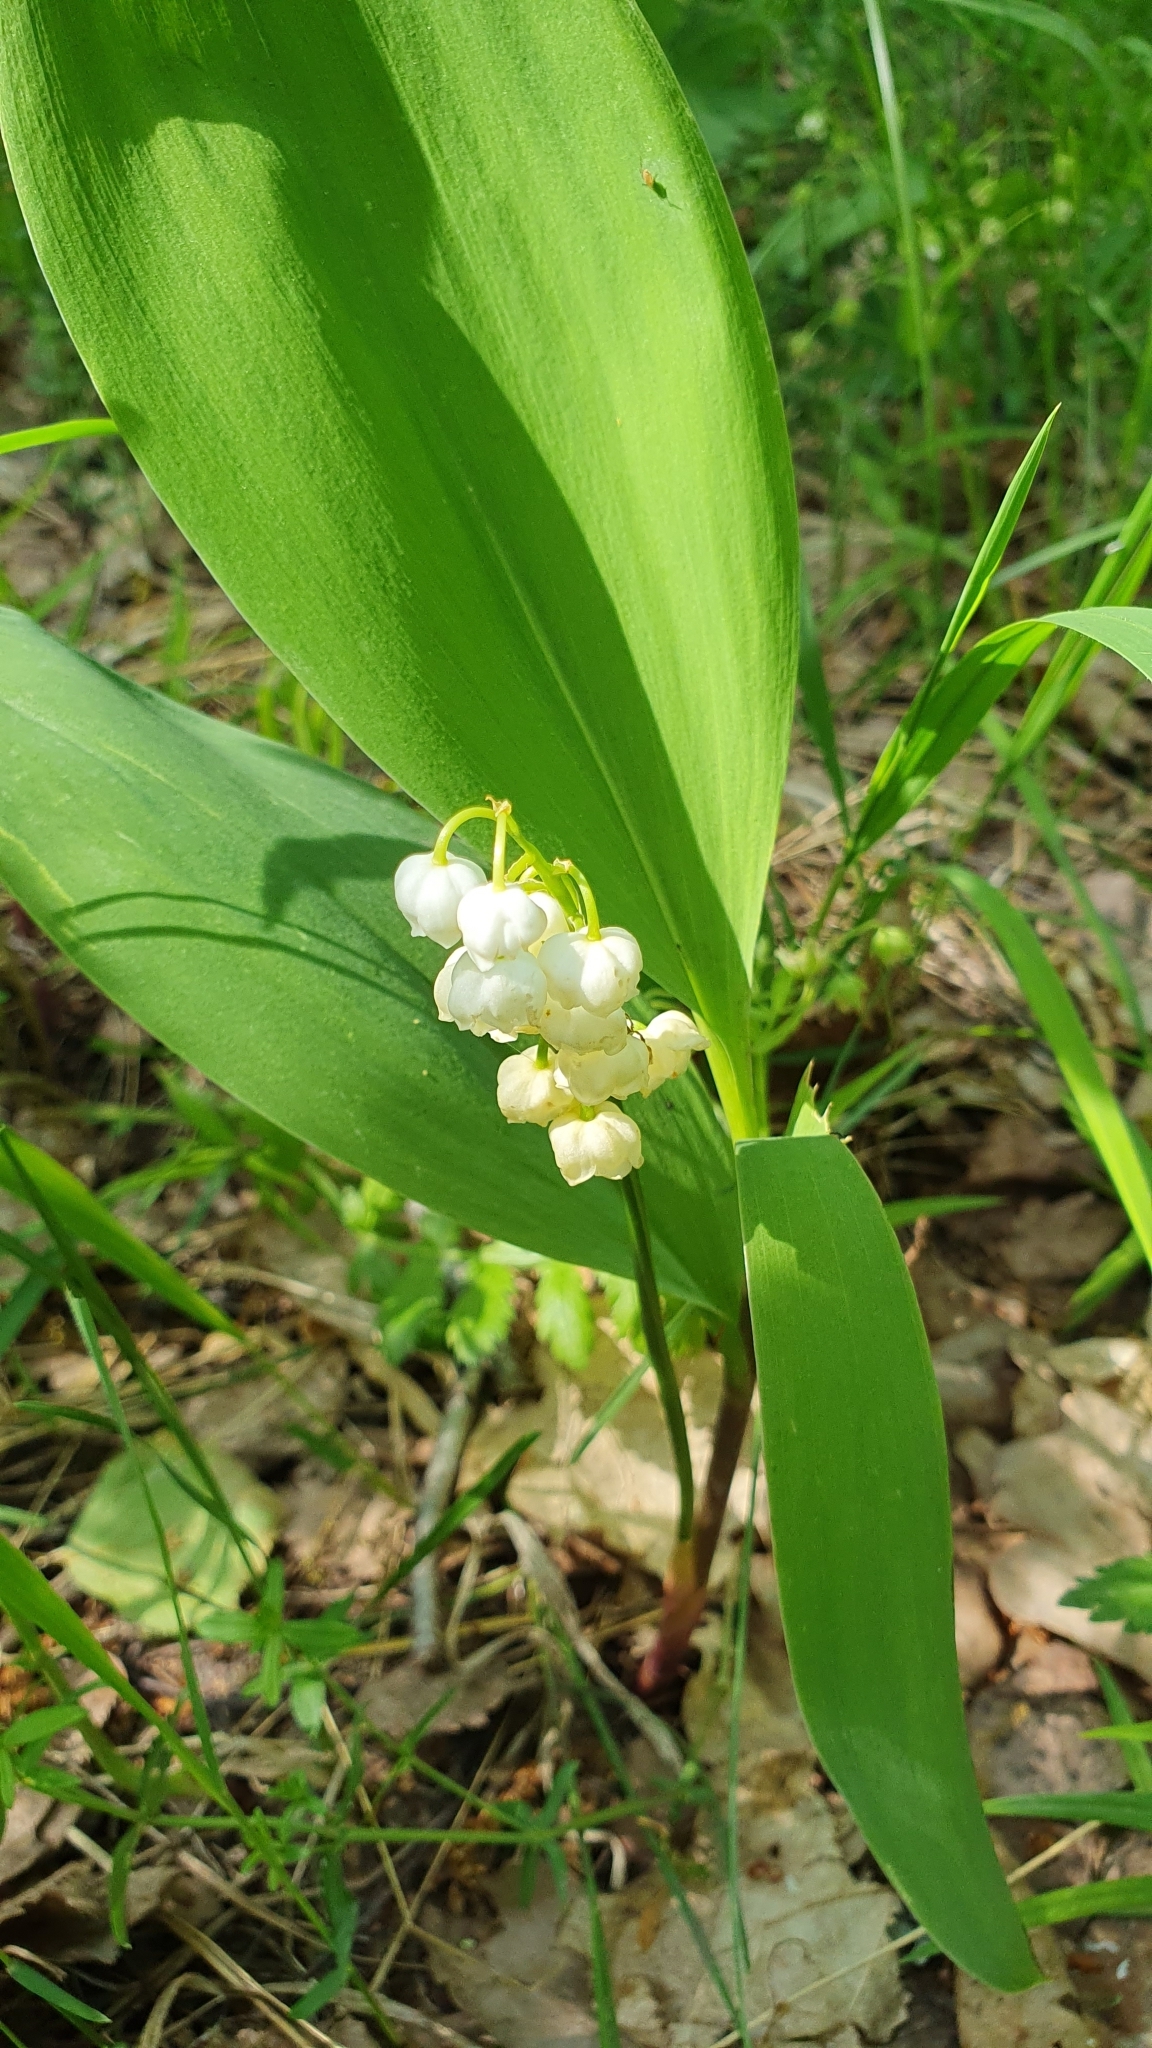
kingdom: Plantae
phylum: Tracheophyta
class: Liliopsida
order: Asparagales
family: Asparagaceae
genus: Convallaria
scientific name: Convallaria majalis
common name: Lily-of-the-valley
